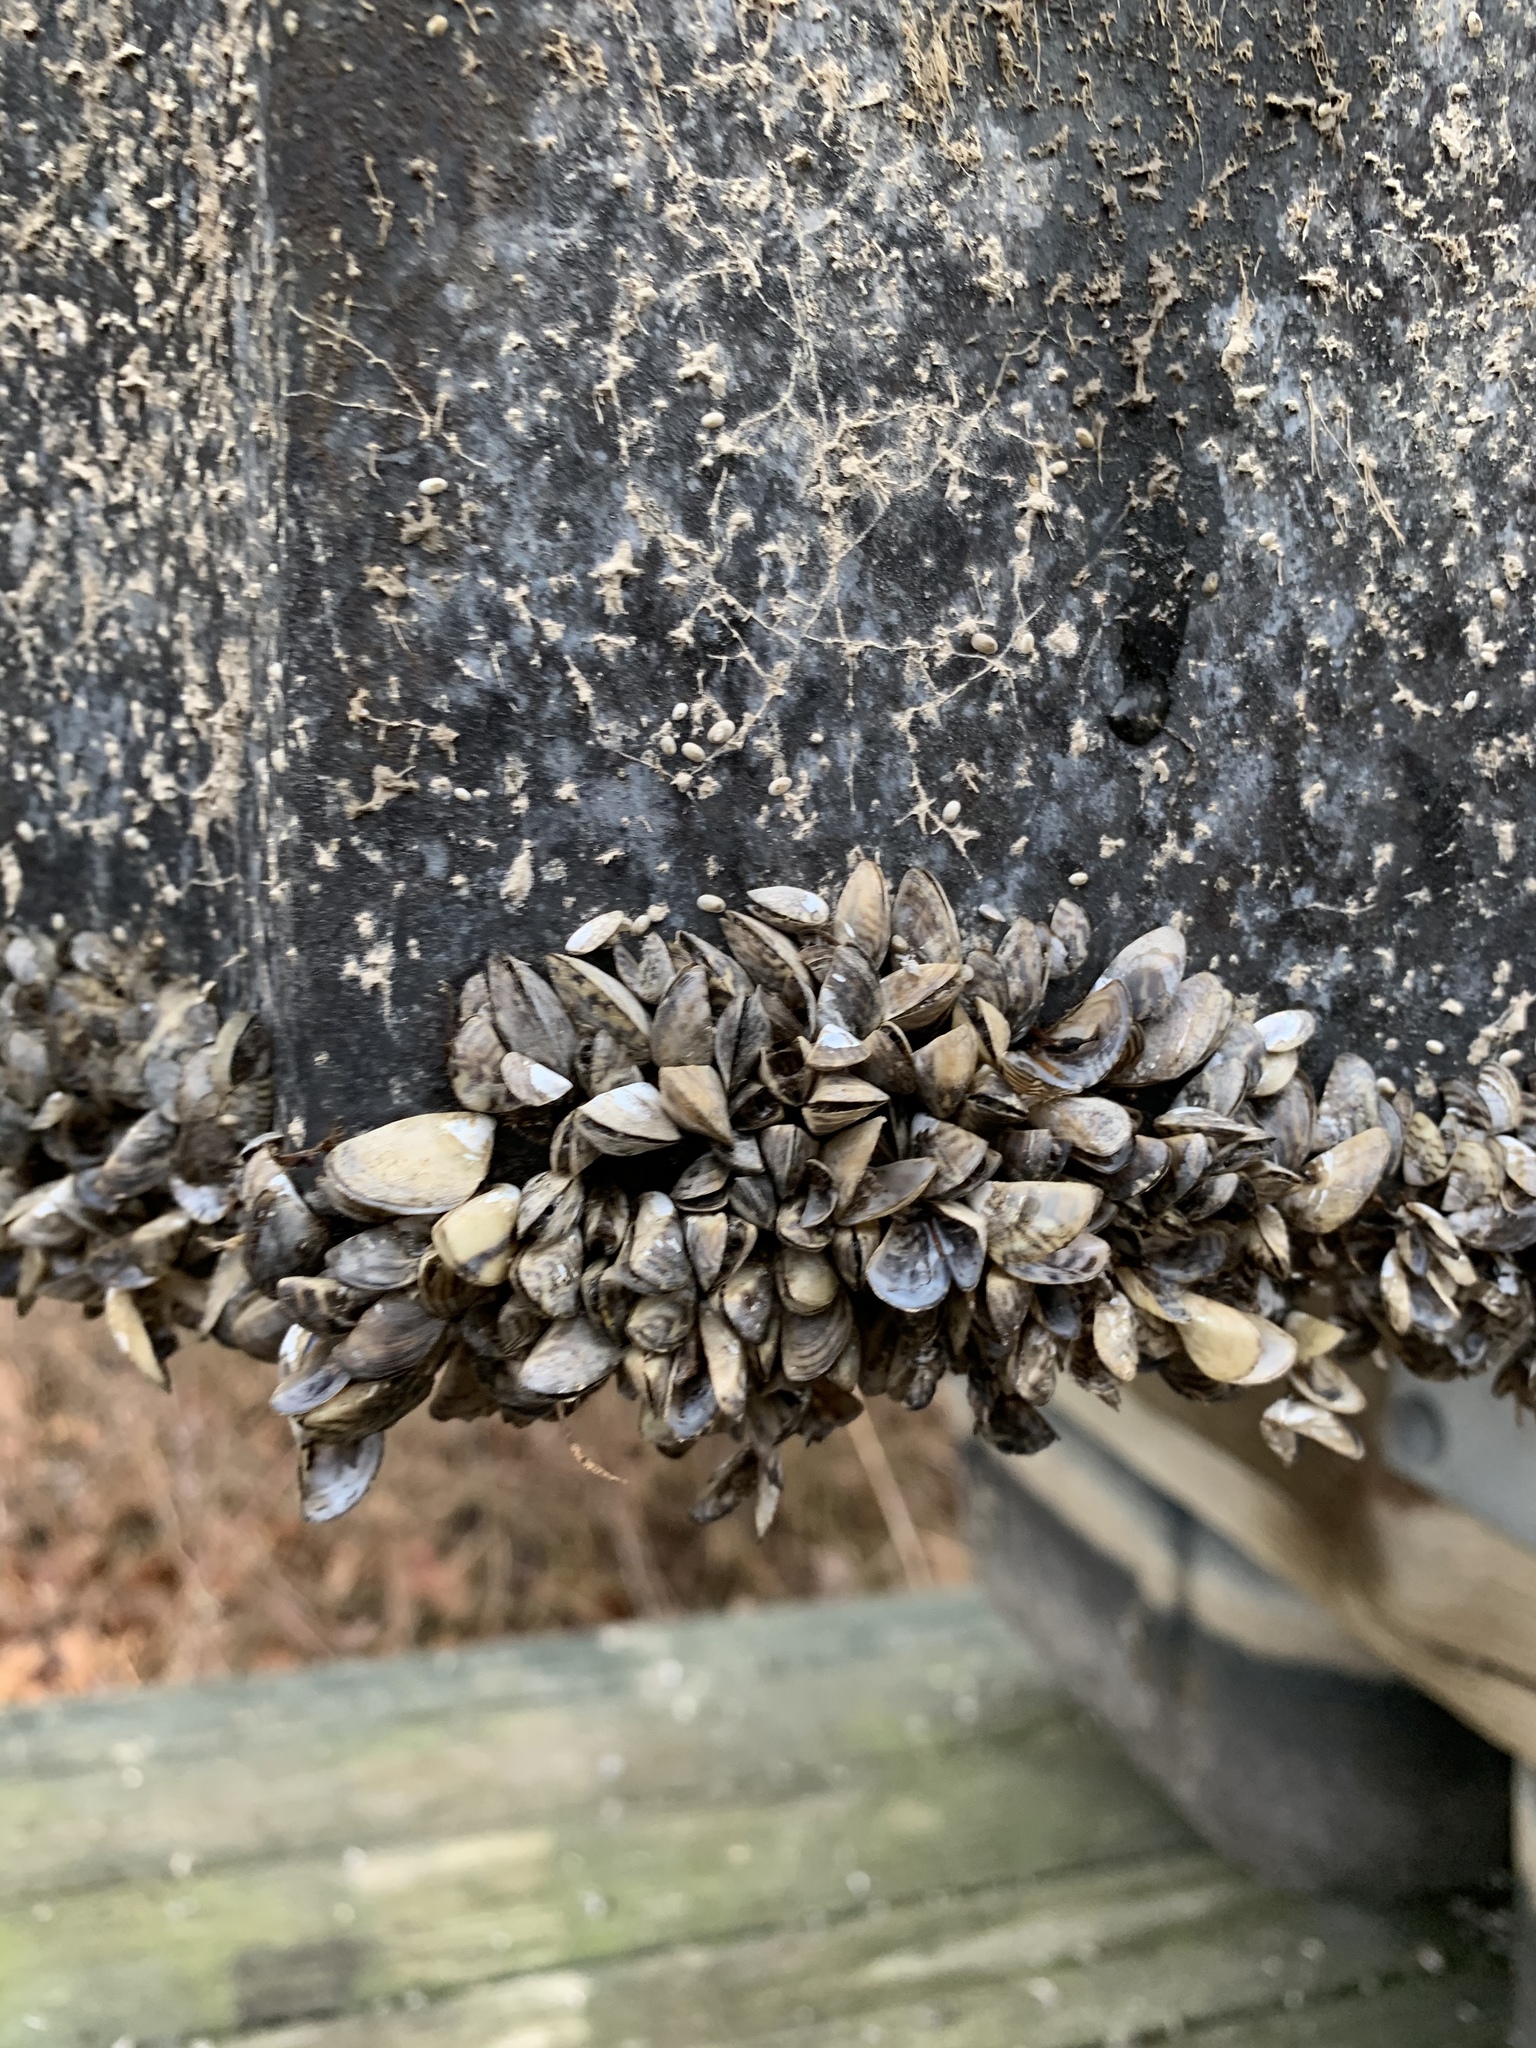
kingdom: Animalia
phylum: Mollusca
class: Bivalvia
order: Myida
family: Dreissenidae
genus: Dreissena
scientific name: Dreissena polymorpha
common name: Zebra mussel
